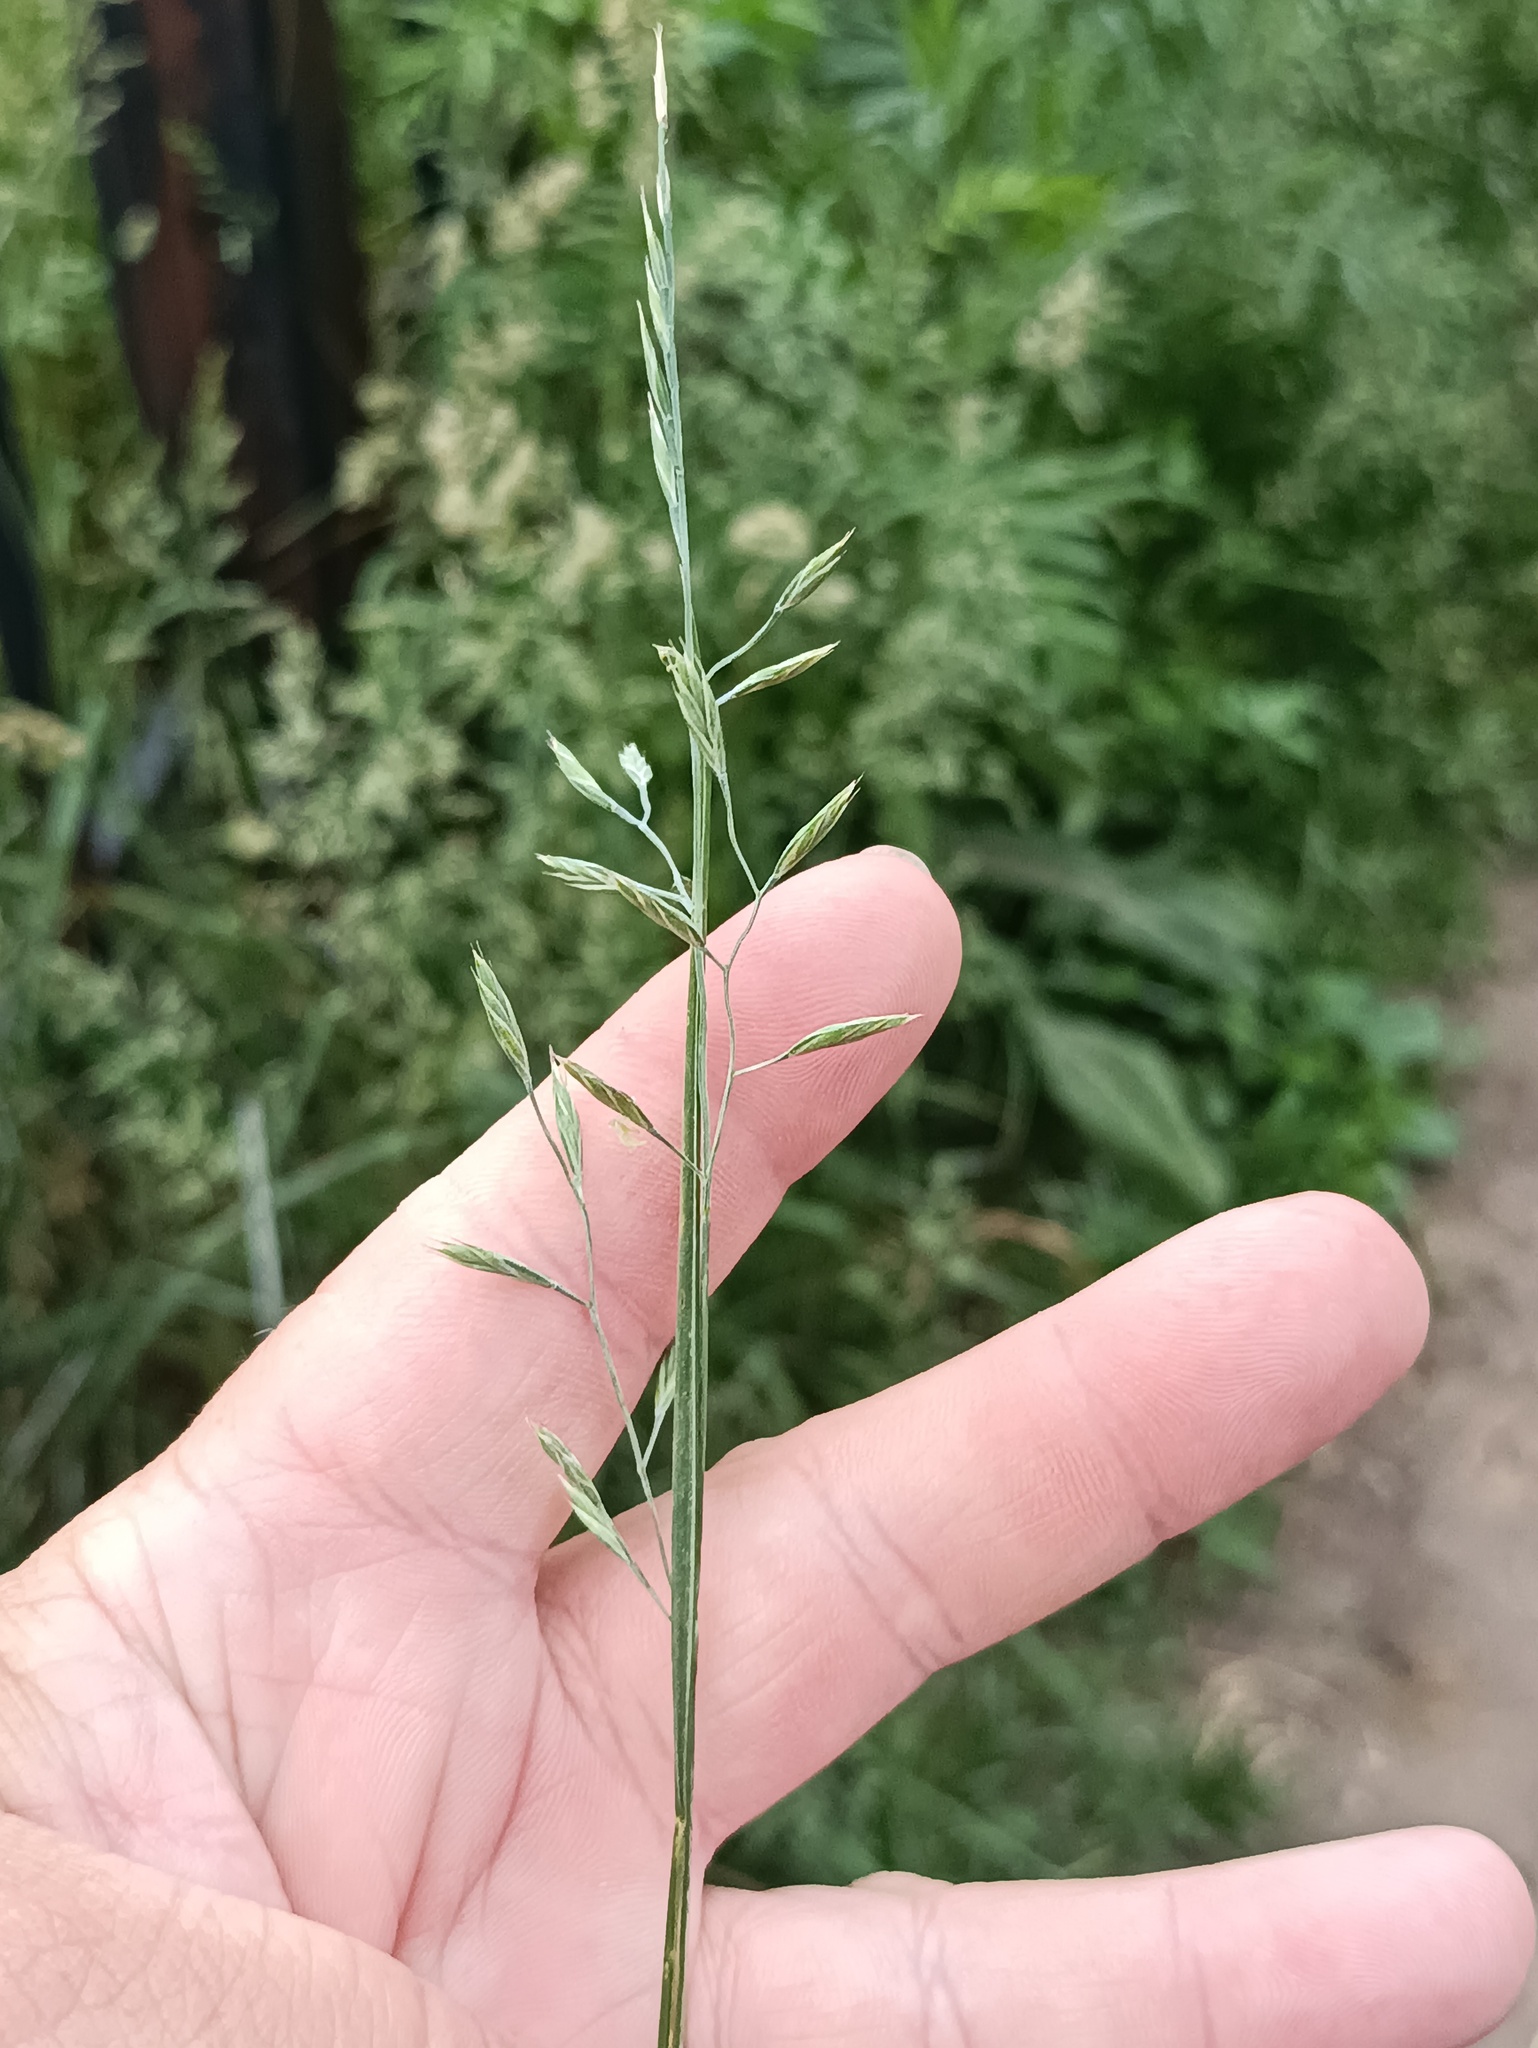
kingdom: Plantae
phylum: Tracheophyta
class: Liliopsida
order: Poales
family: Poaceae
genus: Lolium
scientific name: Lolium pratense
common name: Dover grass
